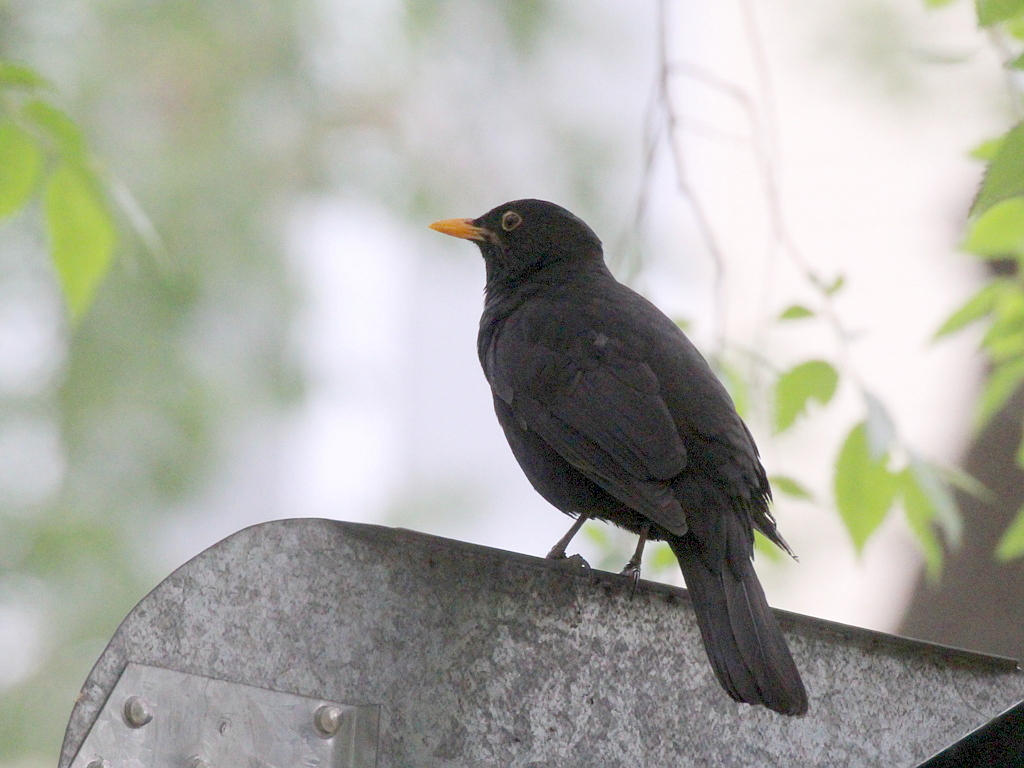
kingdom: Animalia
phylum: Chordata
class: Aves
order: Passeriformes
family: Turdidae
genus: Turdus
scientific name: Turdus merula
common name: Common blackbird
